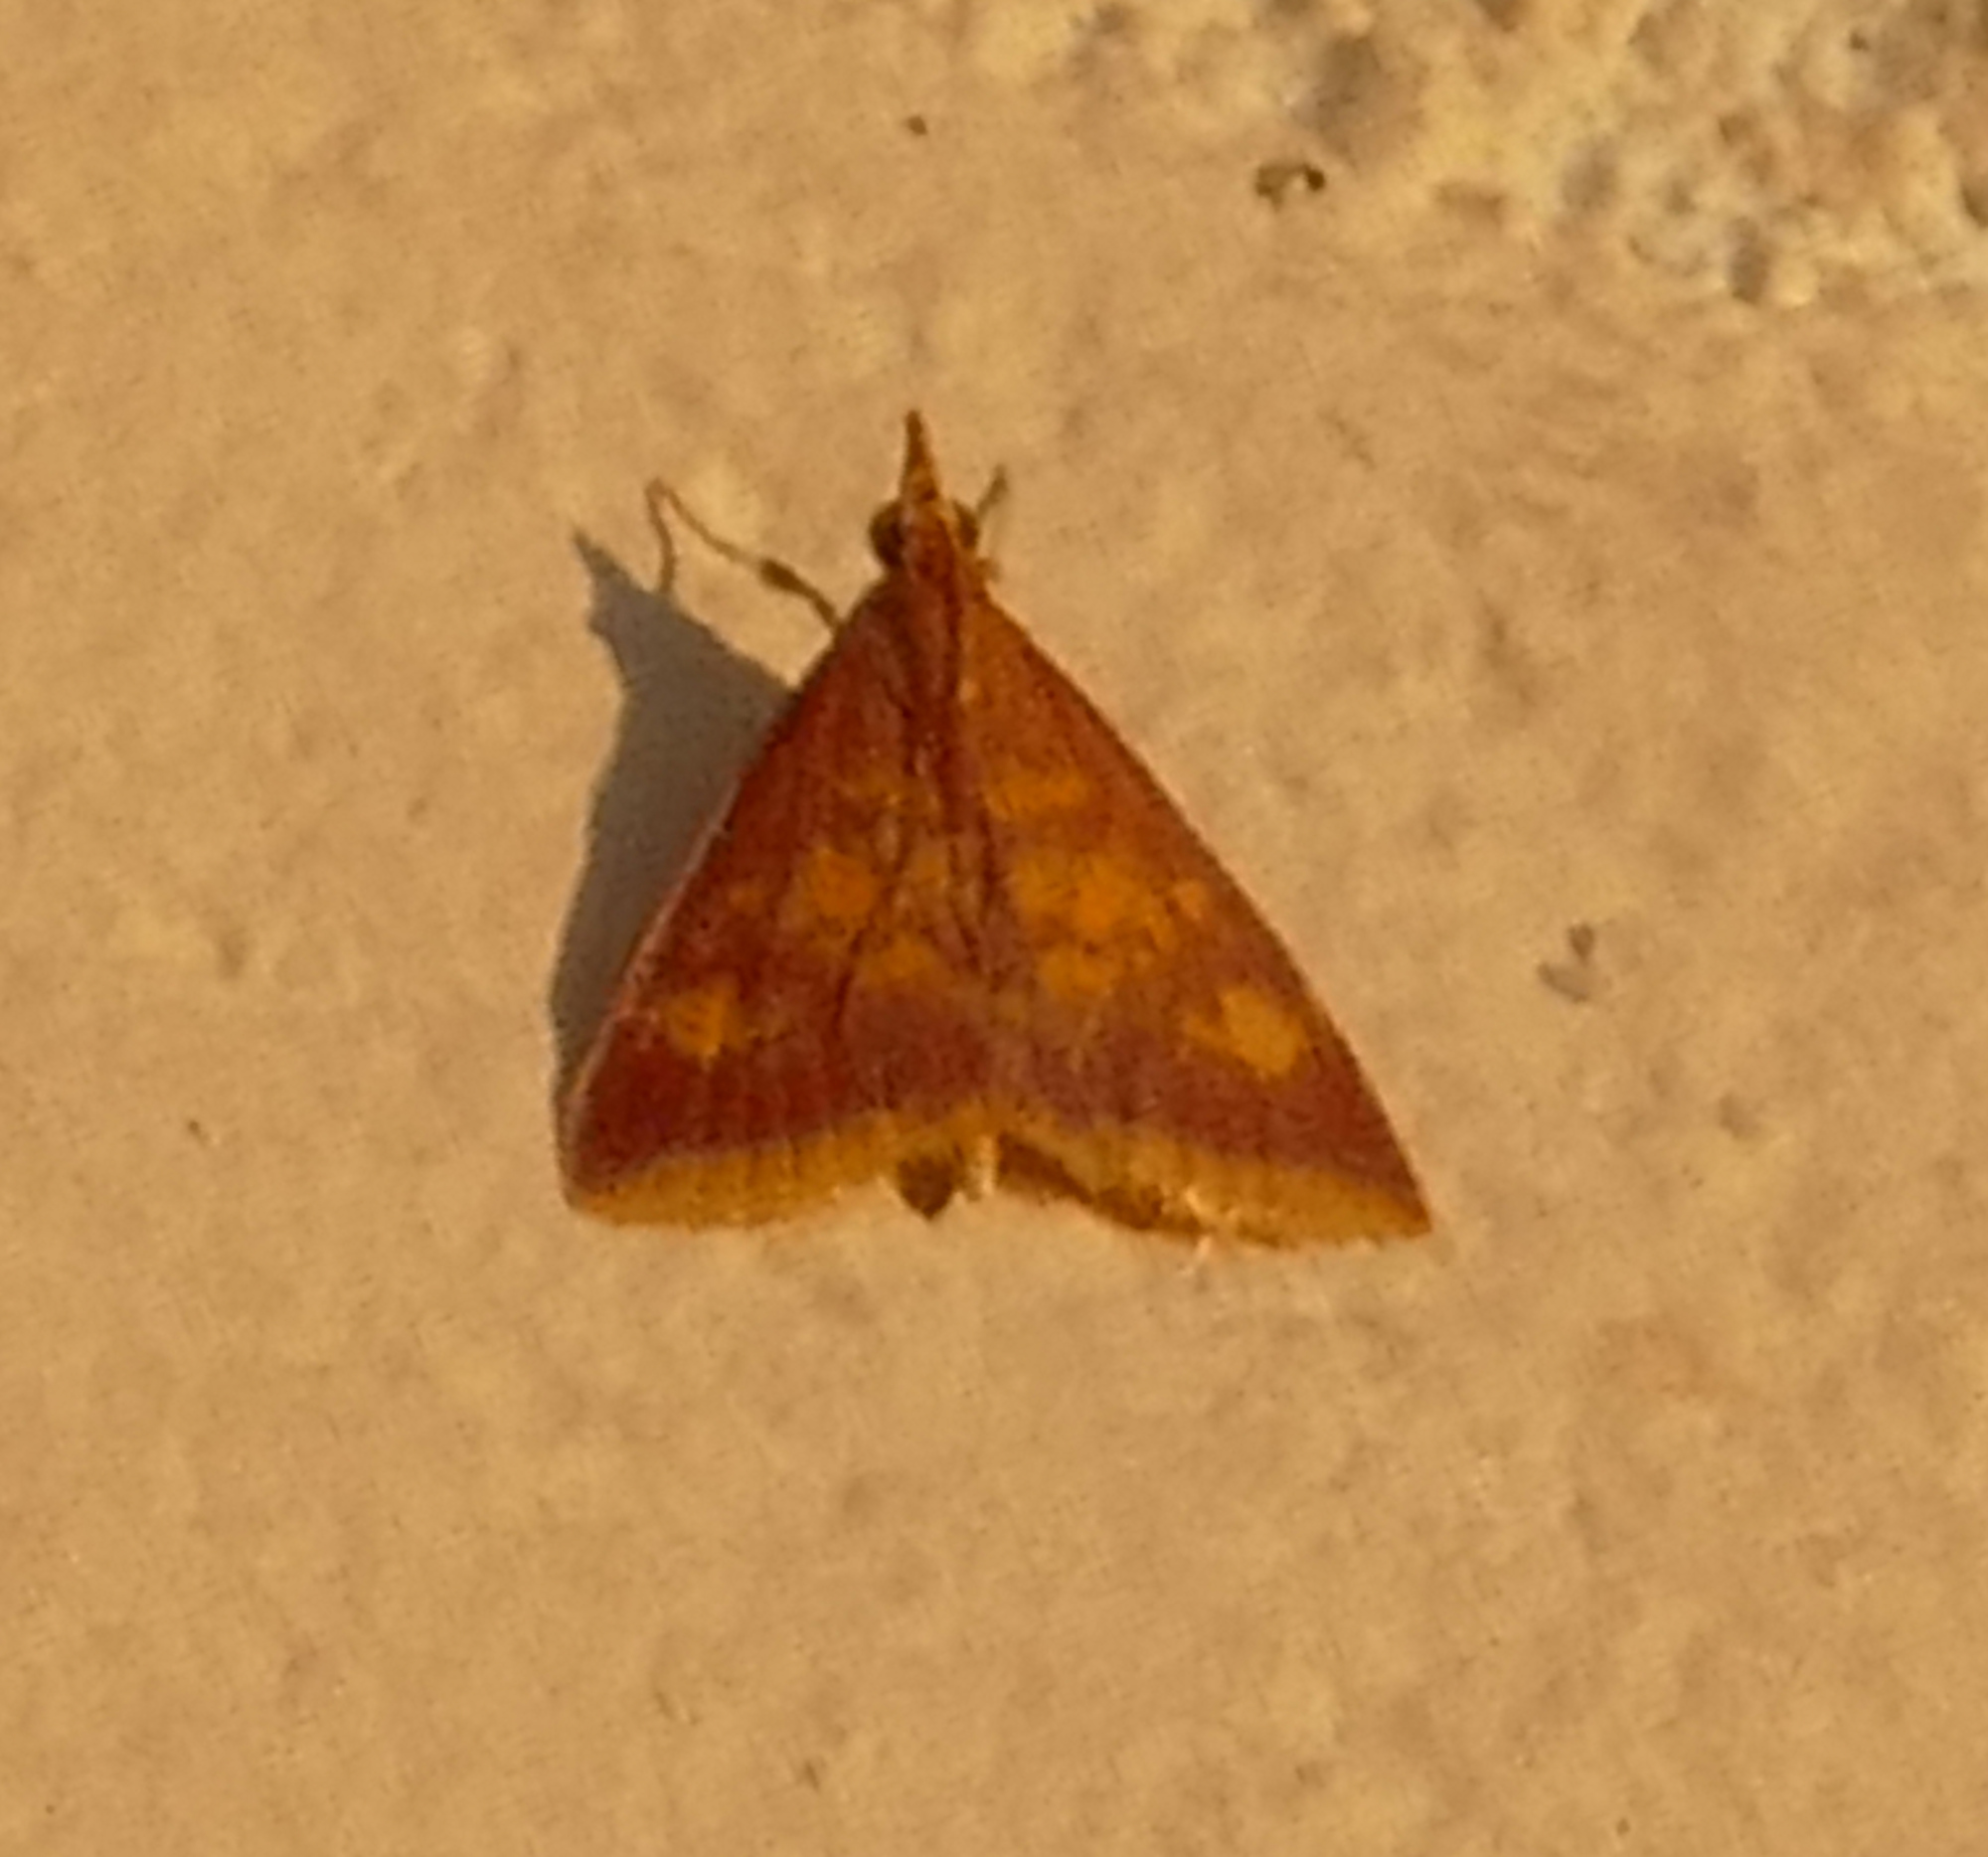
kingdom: Animalia
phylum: Arthropoda
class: Insecta
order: Lepidoptera
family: Crambidae
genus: Pyrausta
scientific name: Pyrausta acrionalis
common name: Mint-loving pyrausta moth
